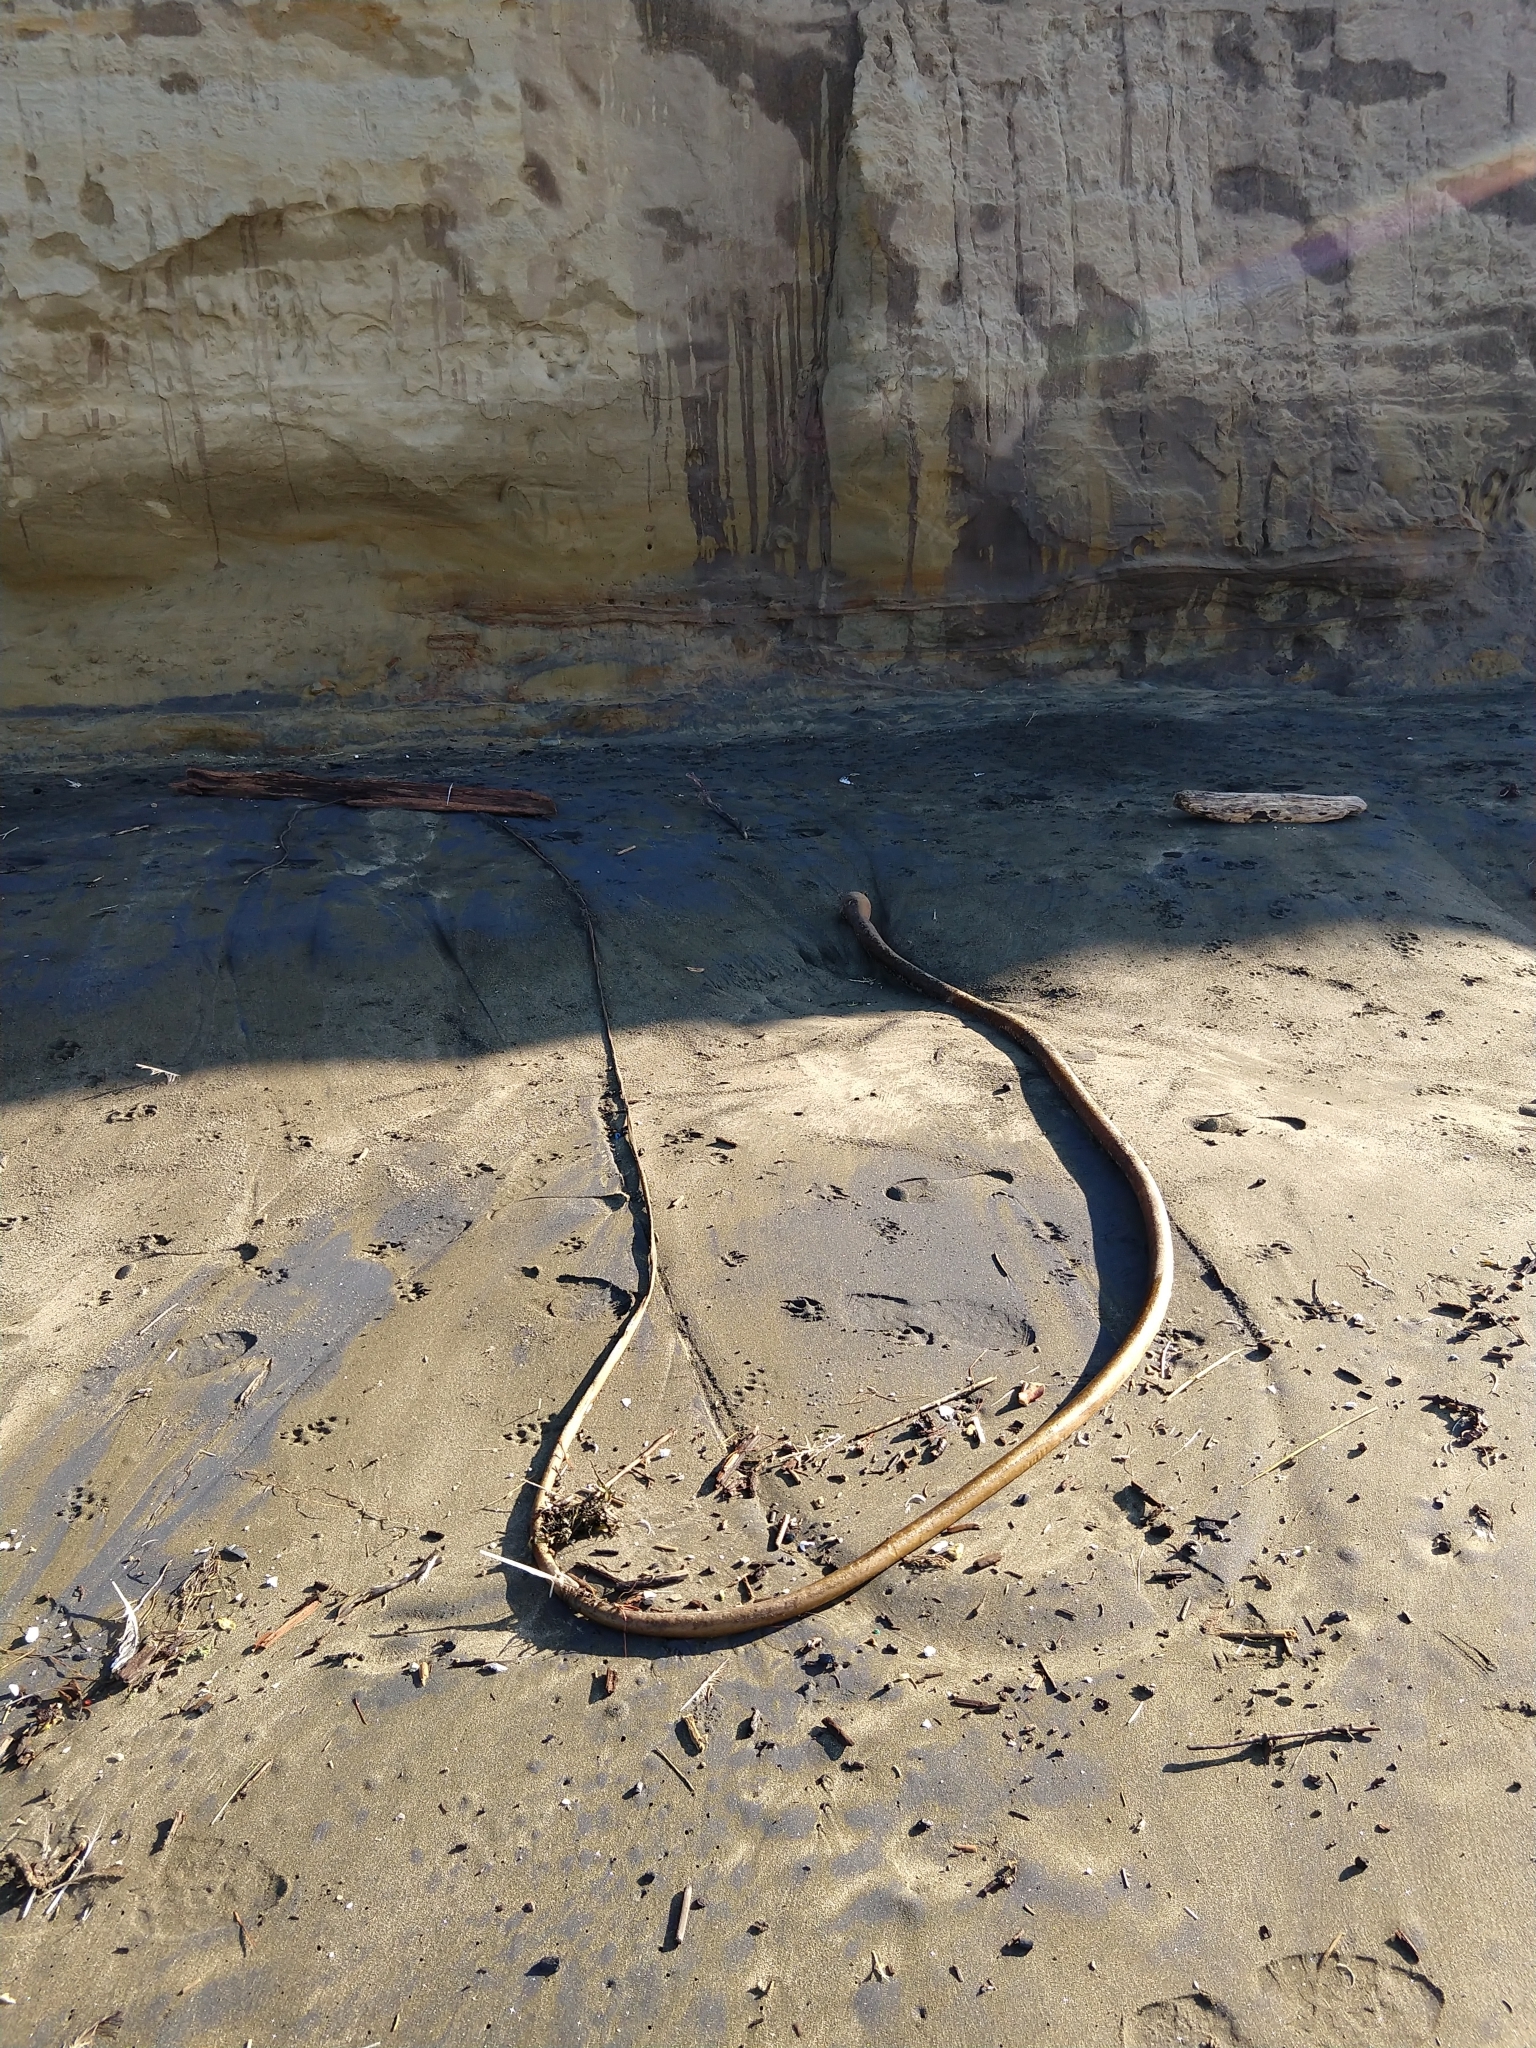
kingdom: Chromista
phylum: Ochrophyta
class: Phaeophyceae
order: Laminariales
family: Laminariaceae
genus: Nereocystis
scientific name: Nereocystis luetkeana
